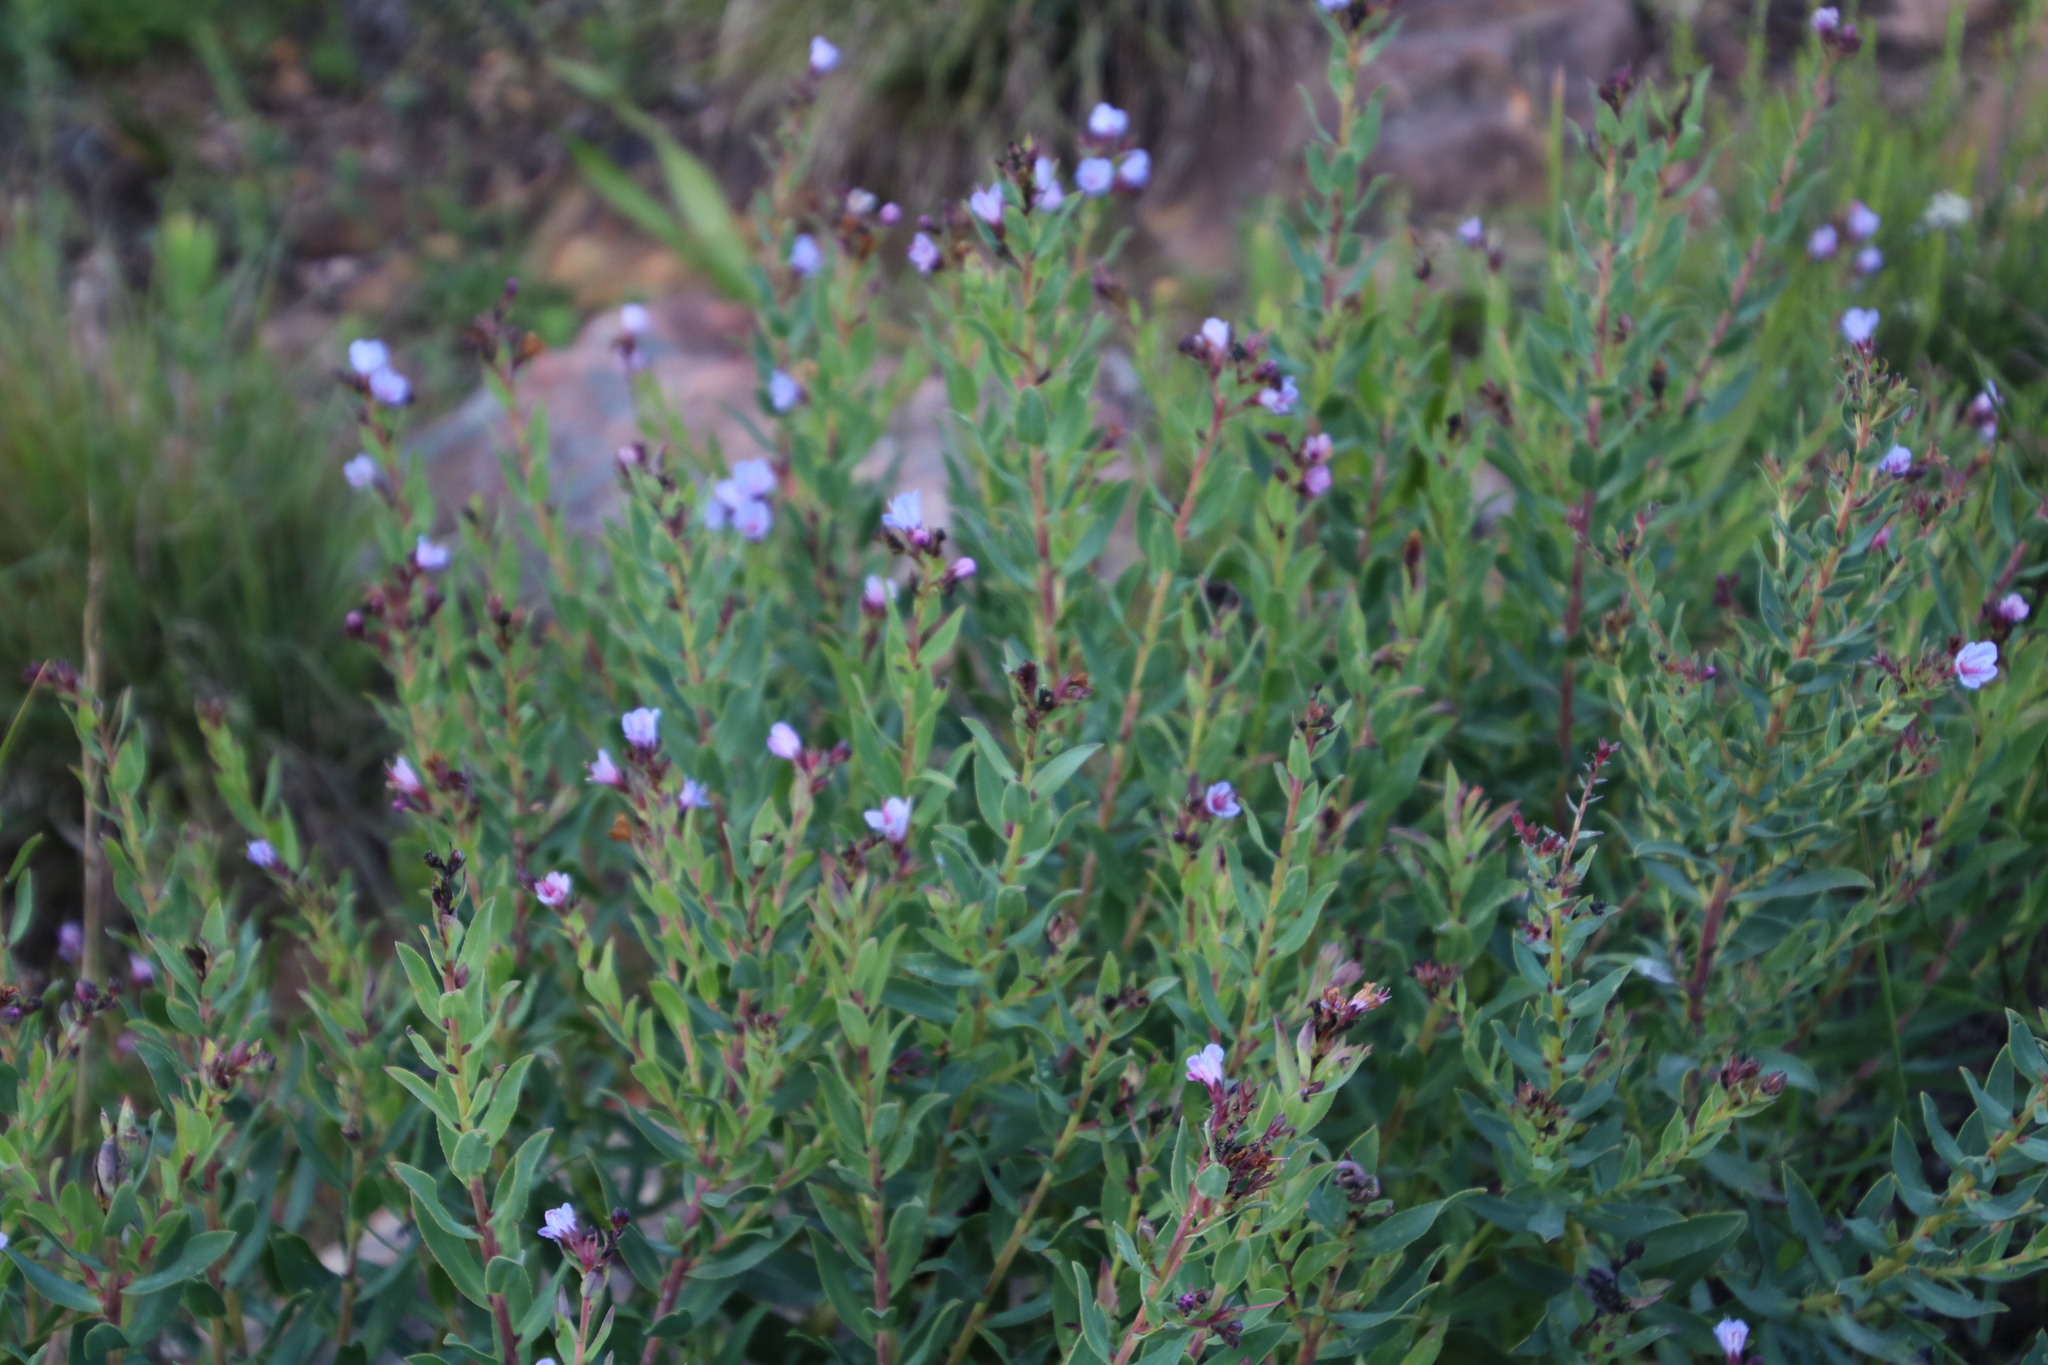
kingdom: Plantae
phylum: Tracheophyta
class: Magnoliopsida
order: Boraginales
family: Boraginaceae
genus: Lobostemon
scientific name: Lobostemon glaucophyllus
